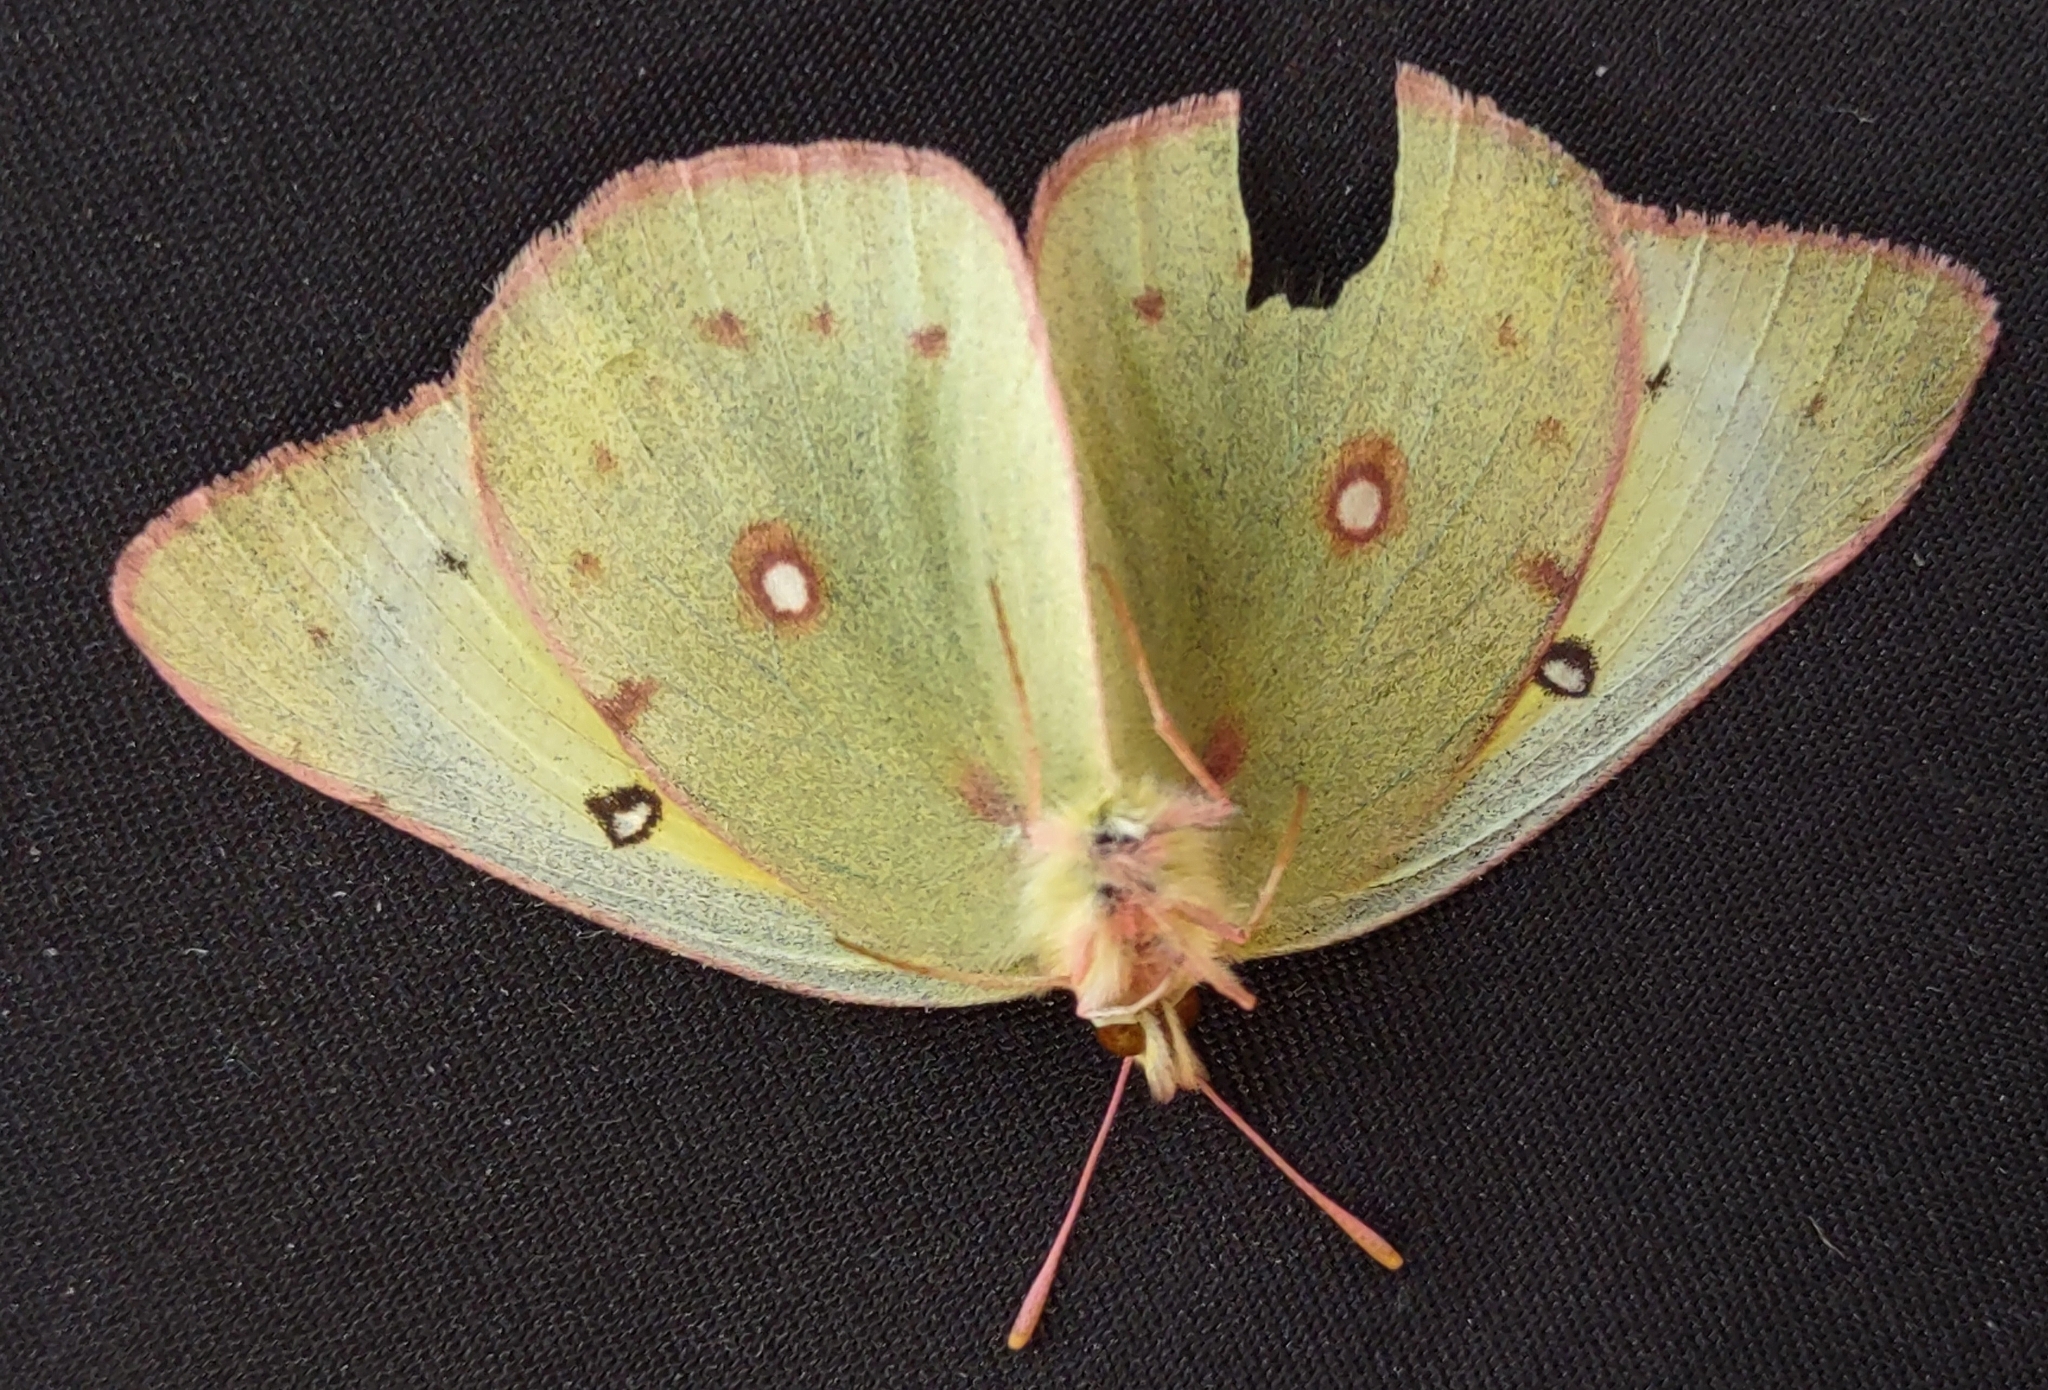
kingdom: Animalia
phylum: Arthropoda
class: Insecta
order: Lepidoptera
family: Pieridae
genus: Colias
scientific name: Colias eurytheme
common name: Alfalfa butterfly
